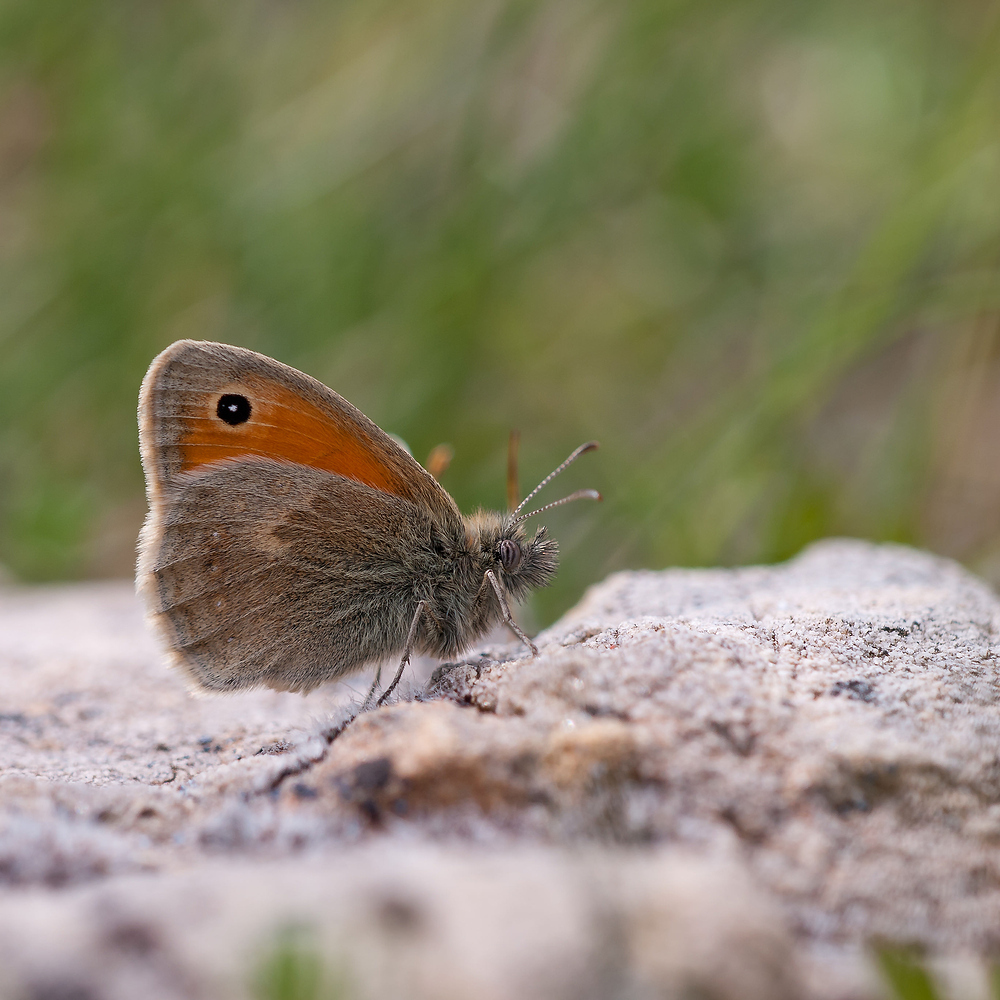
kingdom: Animalia
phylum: Arthropoda
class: Insecta
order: Lepidoptera
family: Nymphalidae
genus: Coenonympha
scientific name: Coenonympha pamphilus
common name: Small heath
